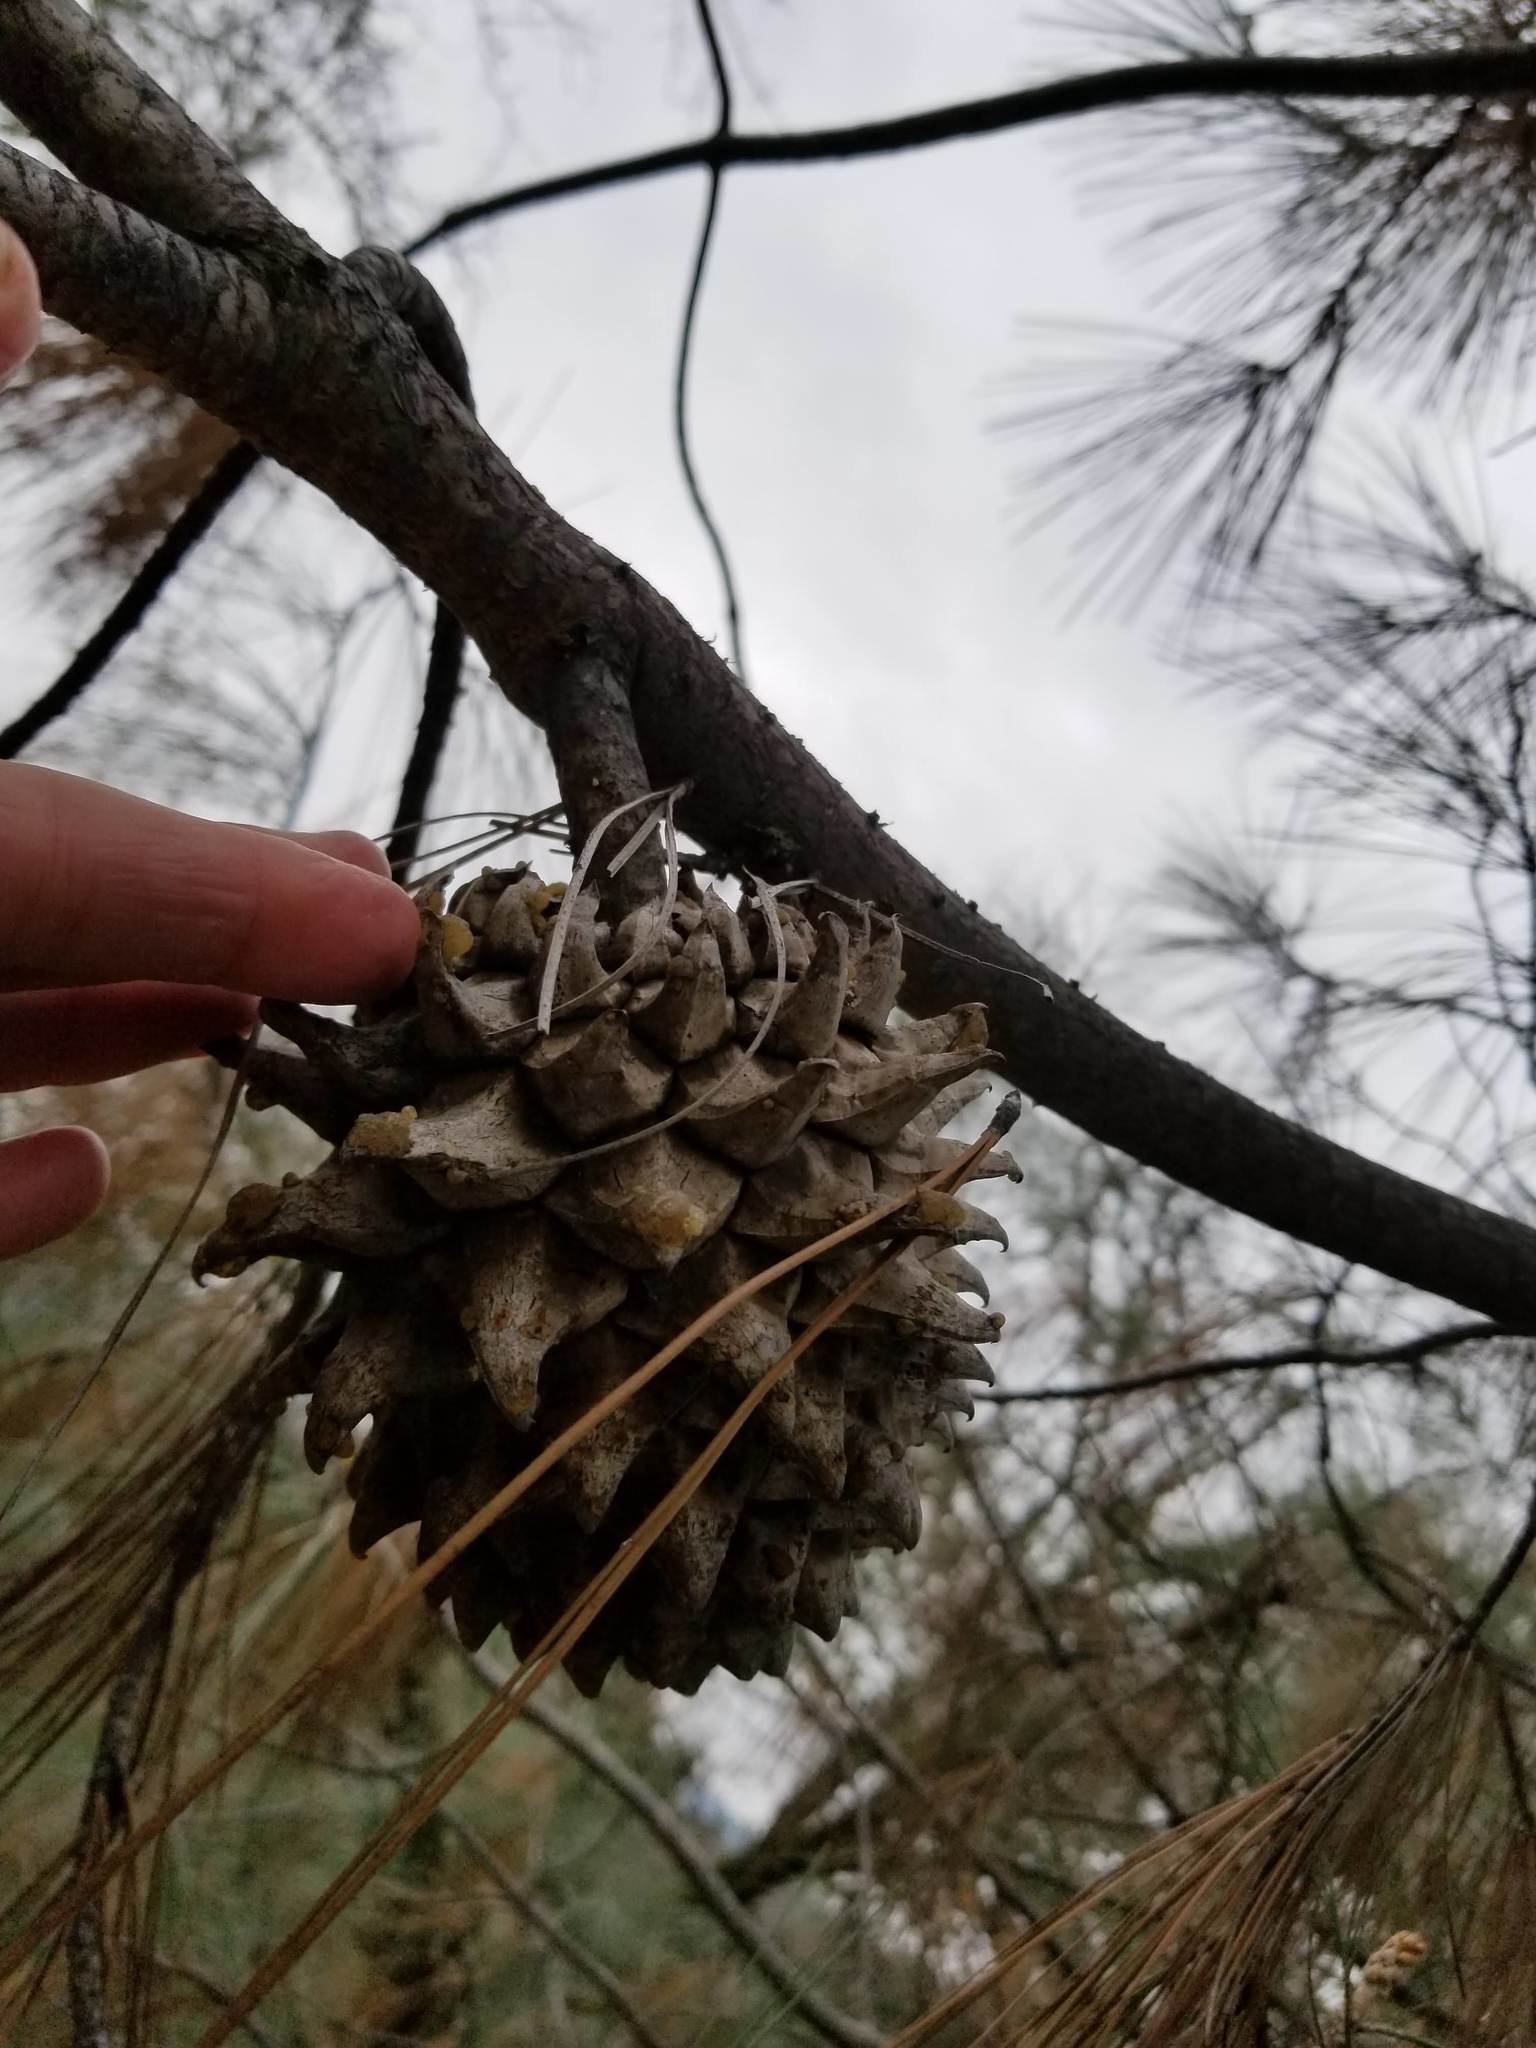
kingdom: Plantae
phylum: Tracheophyta
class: Pinopsida
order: Pinales
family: Pinaceae
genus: Pinus
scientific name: Pinus sabiniana
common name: Bull pine
